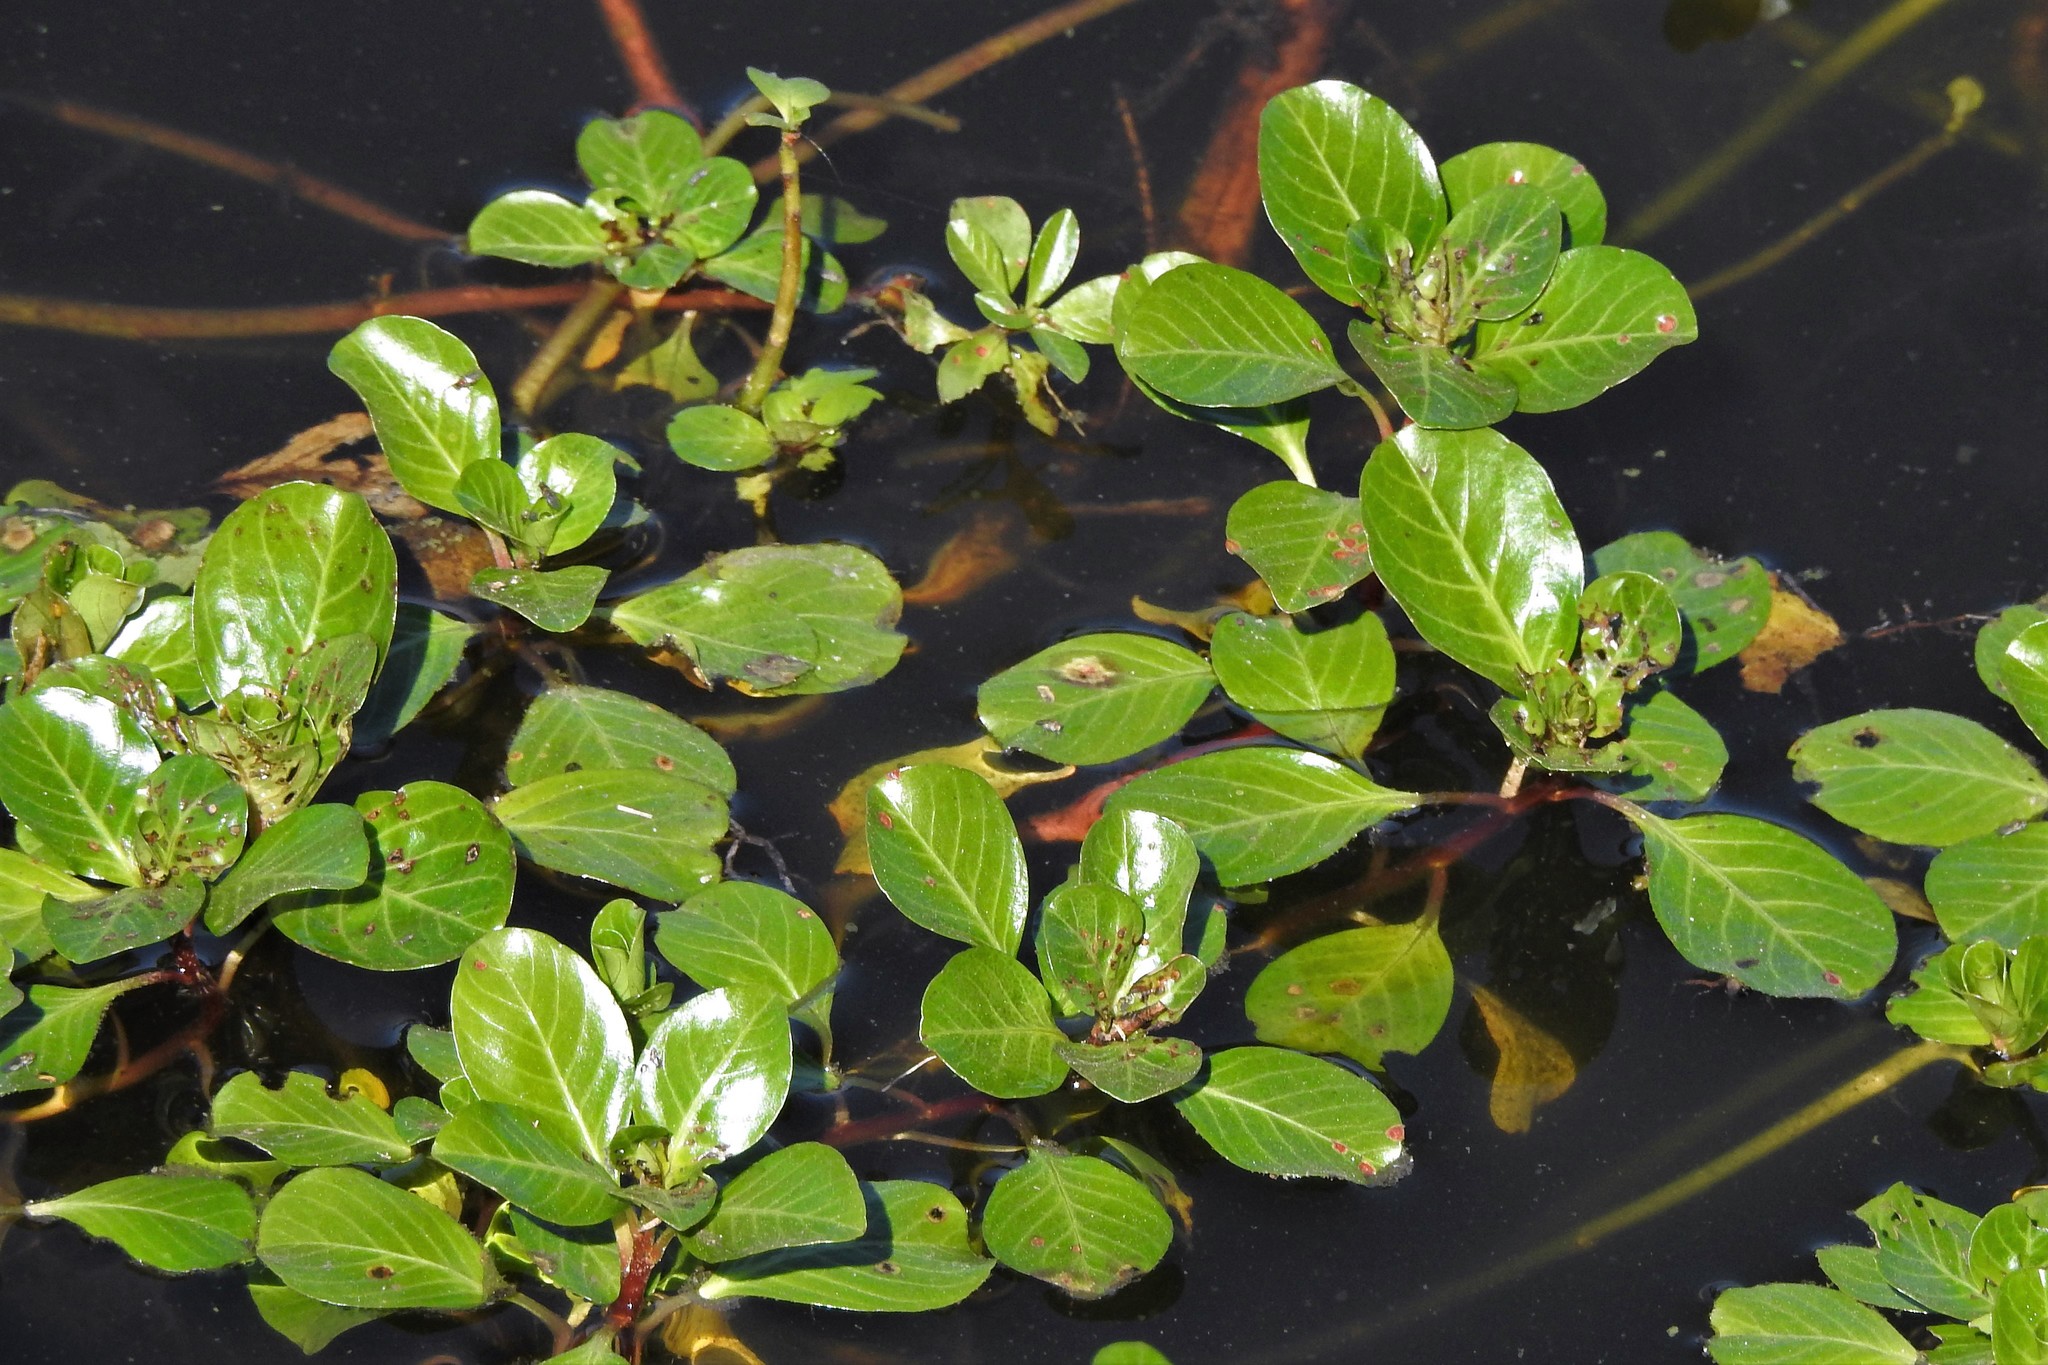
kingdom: Plantae
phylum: Tracheophyta
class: Magnoliopsida
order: Myrtales
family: Onagraceae
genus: Ludwigia
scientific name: Ludwigia peploides
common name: Floating primrose-willow
